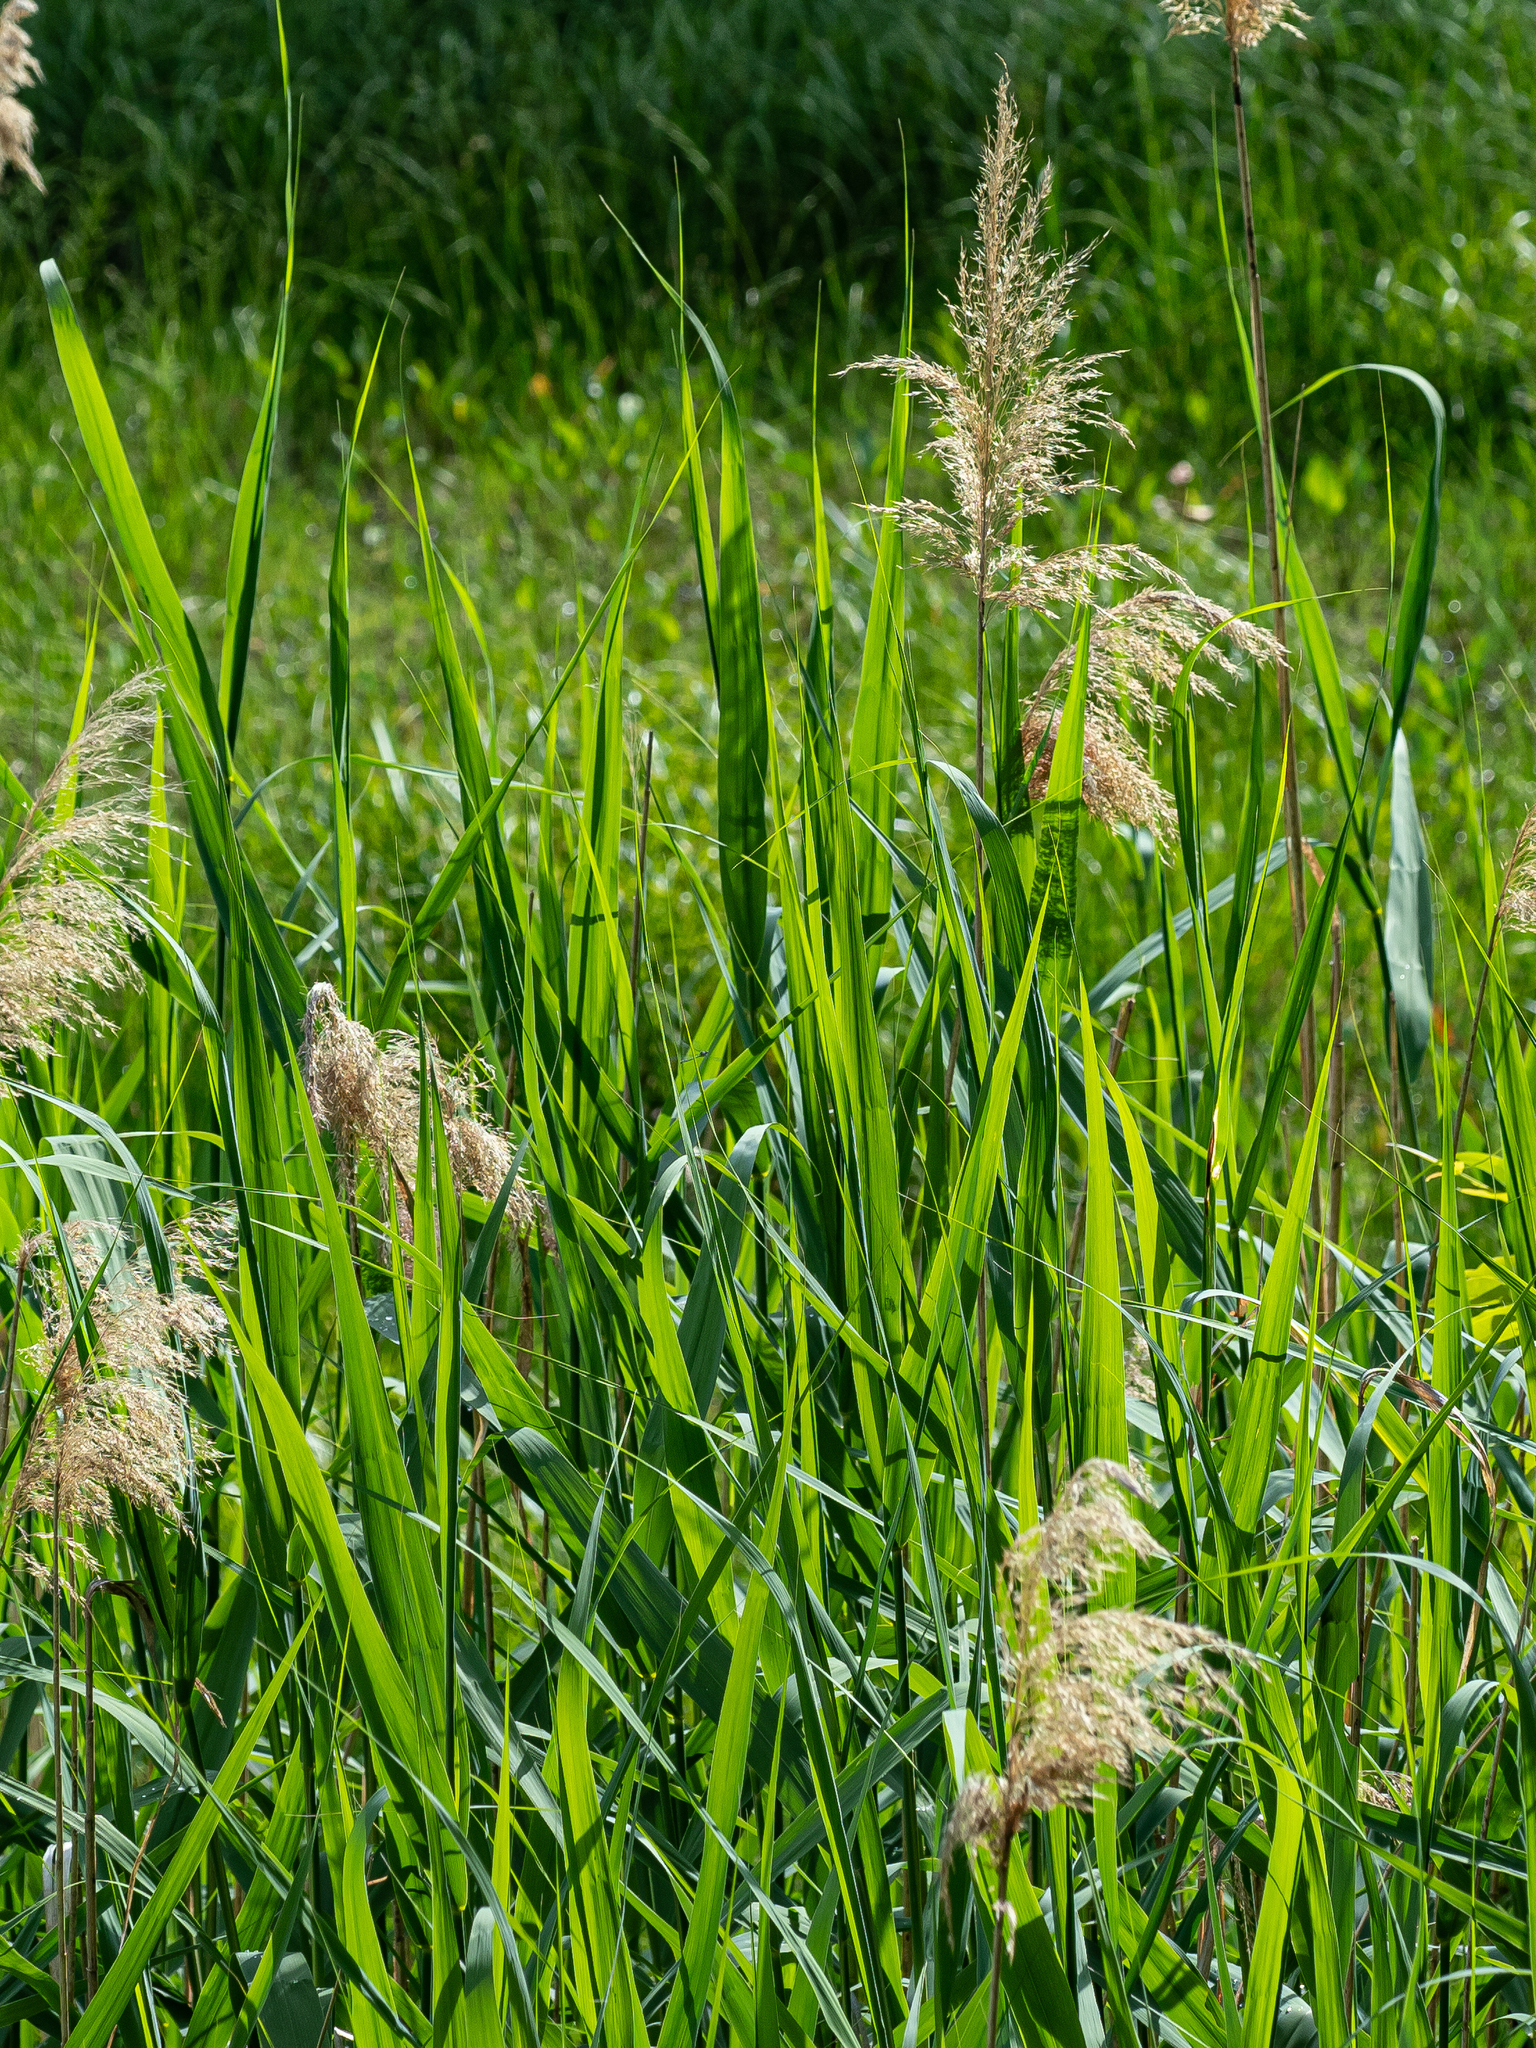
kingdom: Plantae
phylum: Tracheophyta
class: Liliopsida
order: Poales
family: Poaceae
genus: Phragmites
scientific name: Phragmites australis
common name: Common reed
